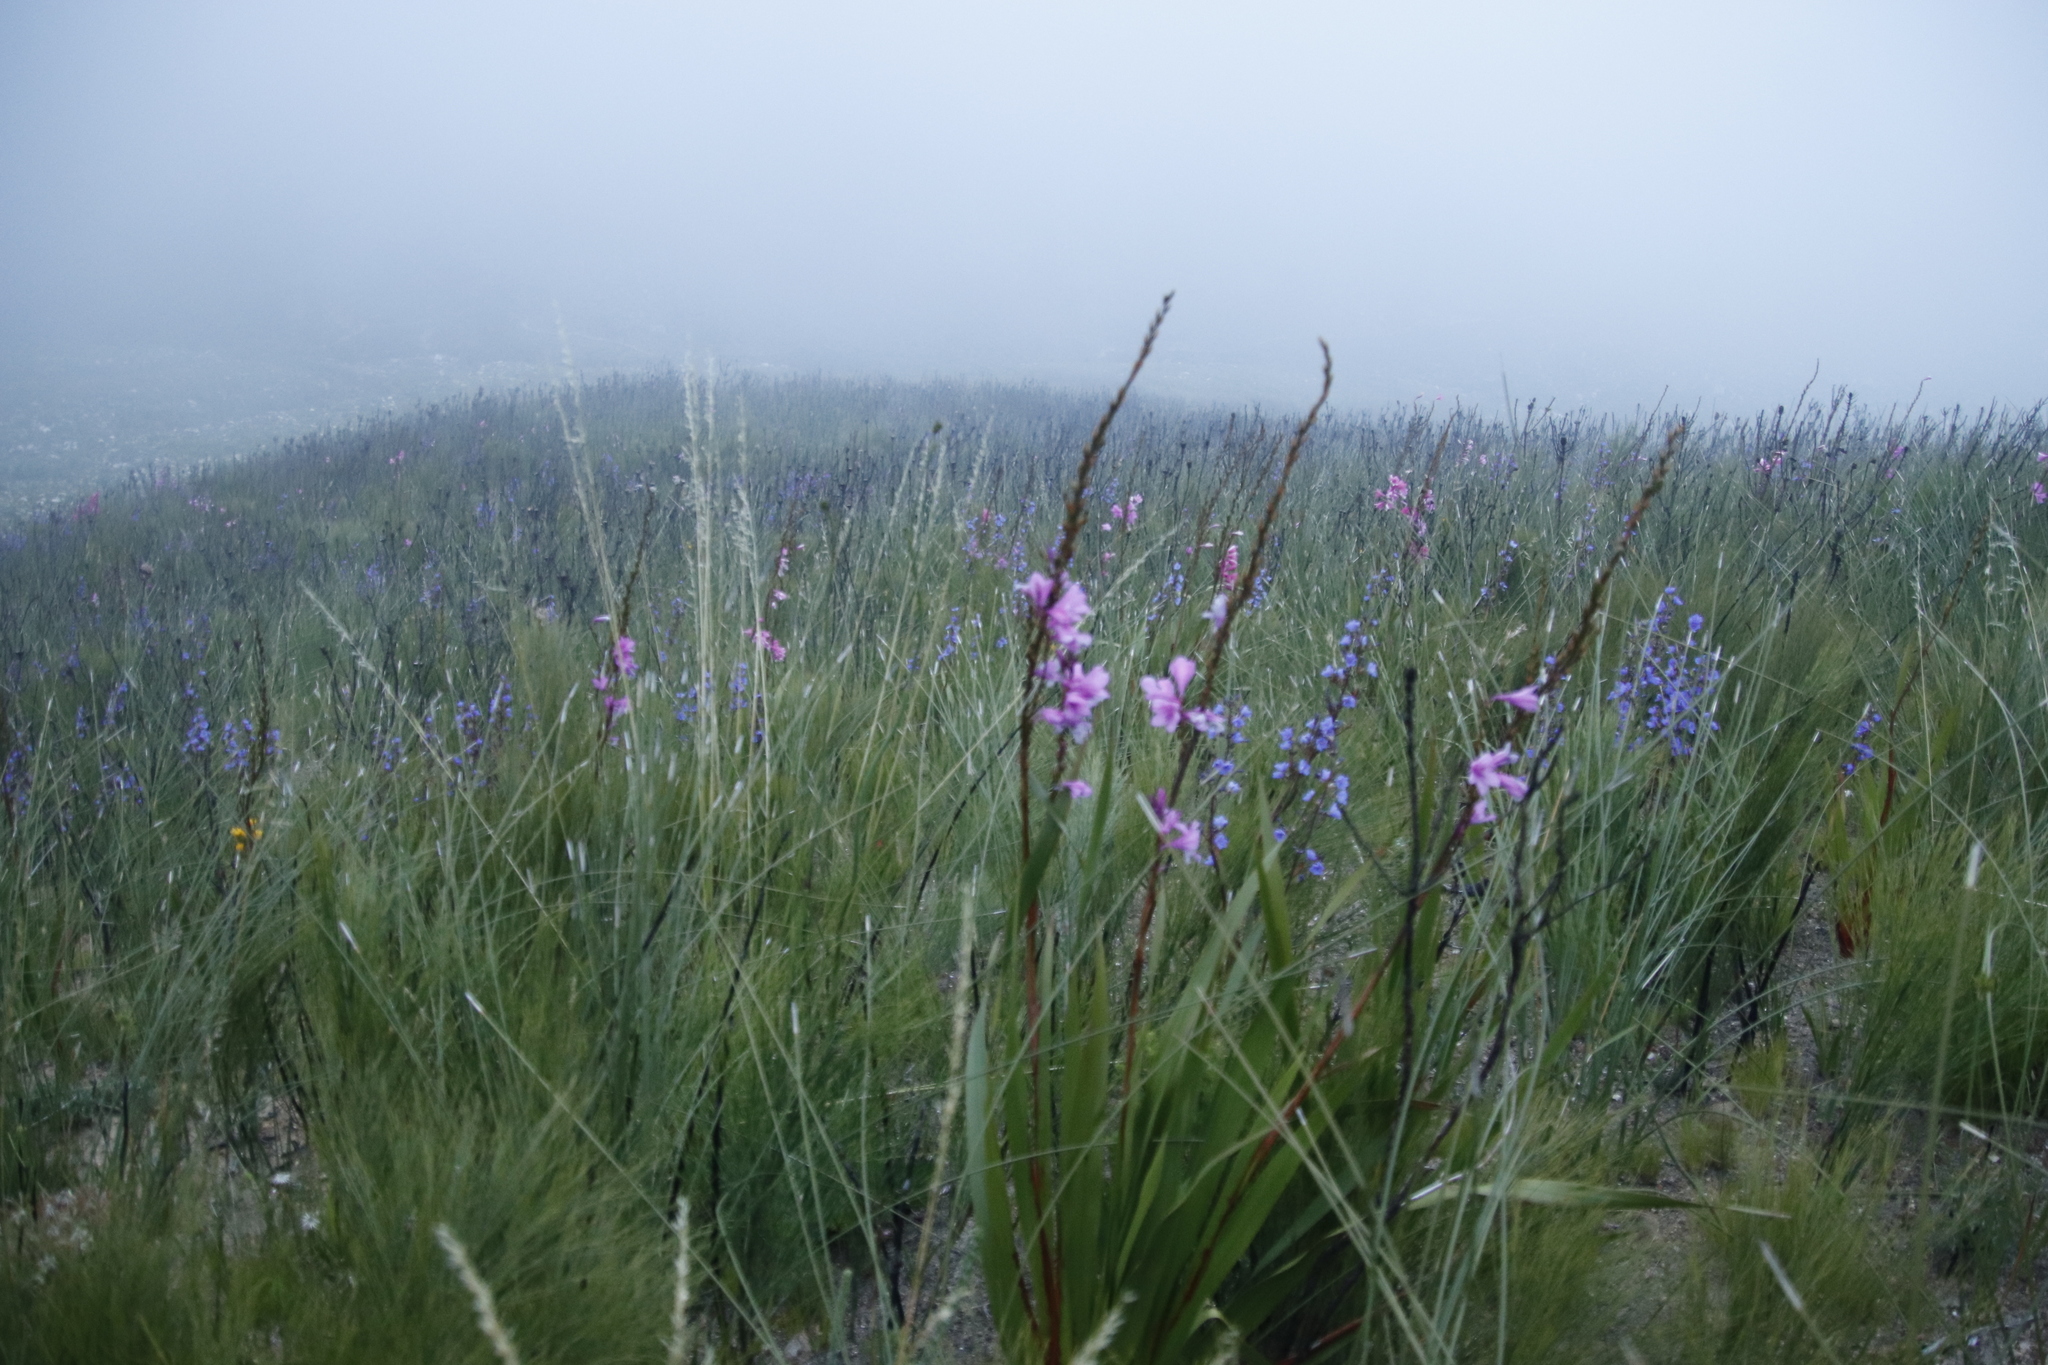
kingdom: Plantae
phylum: Tracheophyta
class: Liliopsida
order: Asparagales
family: Iridaceae
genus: Watsonia
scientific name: Watsonia borbonica
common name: Bugle-lily
